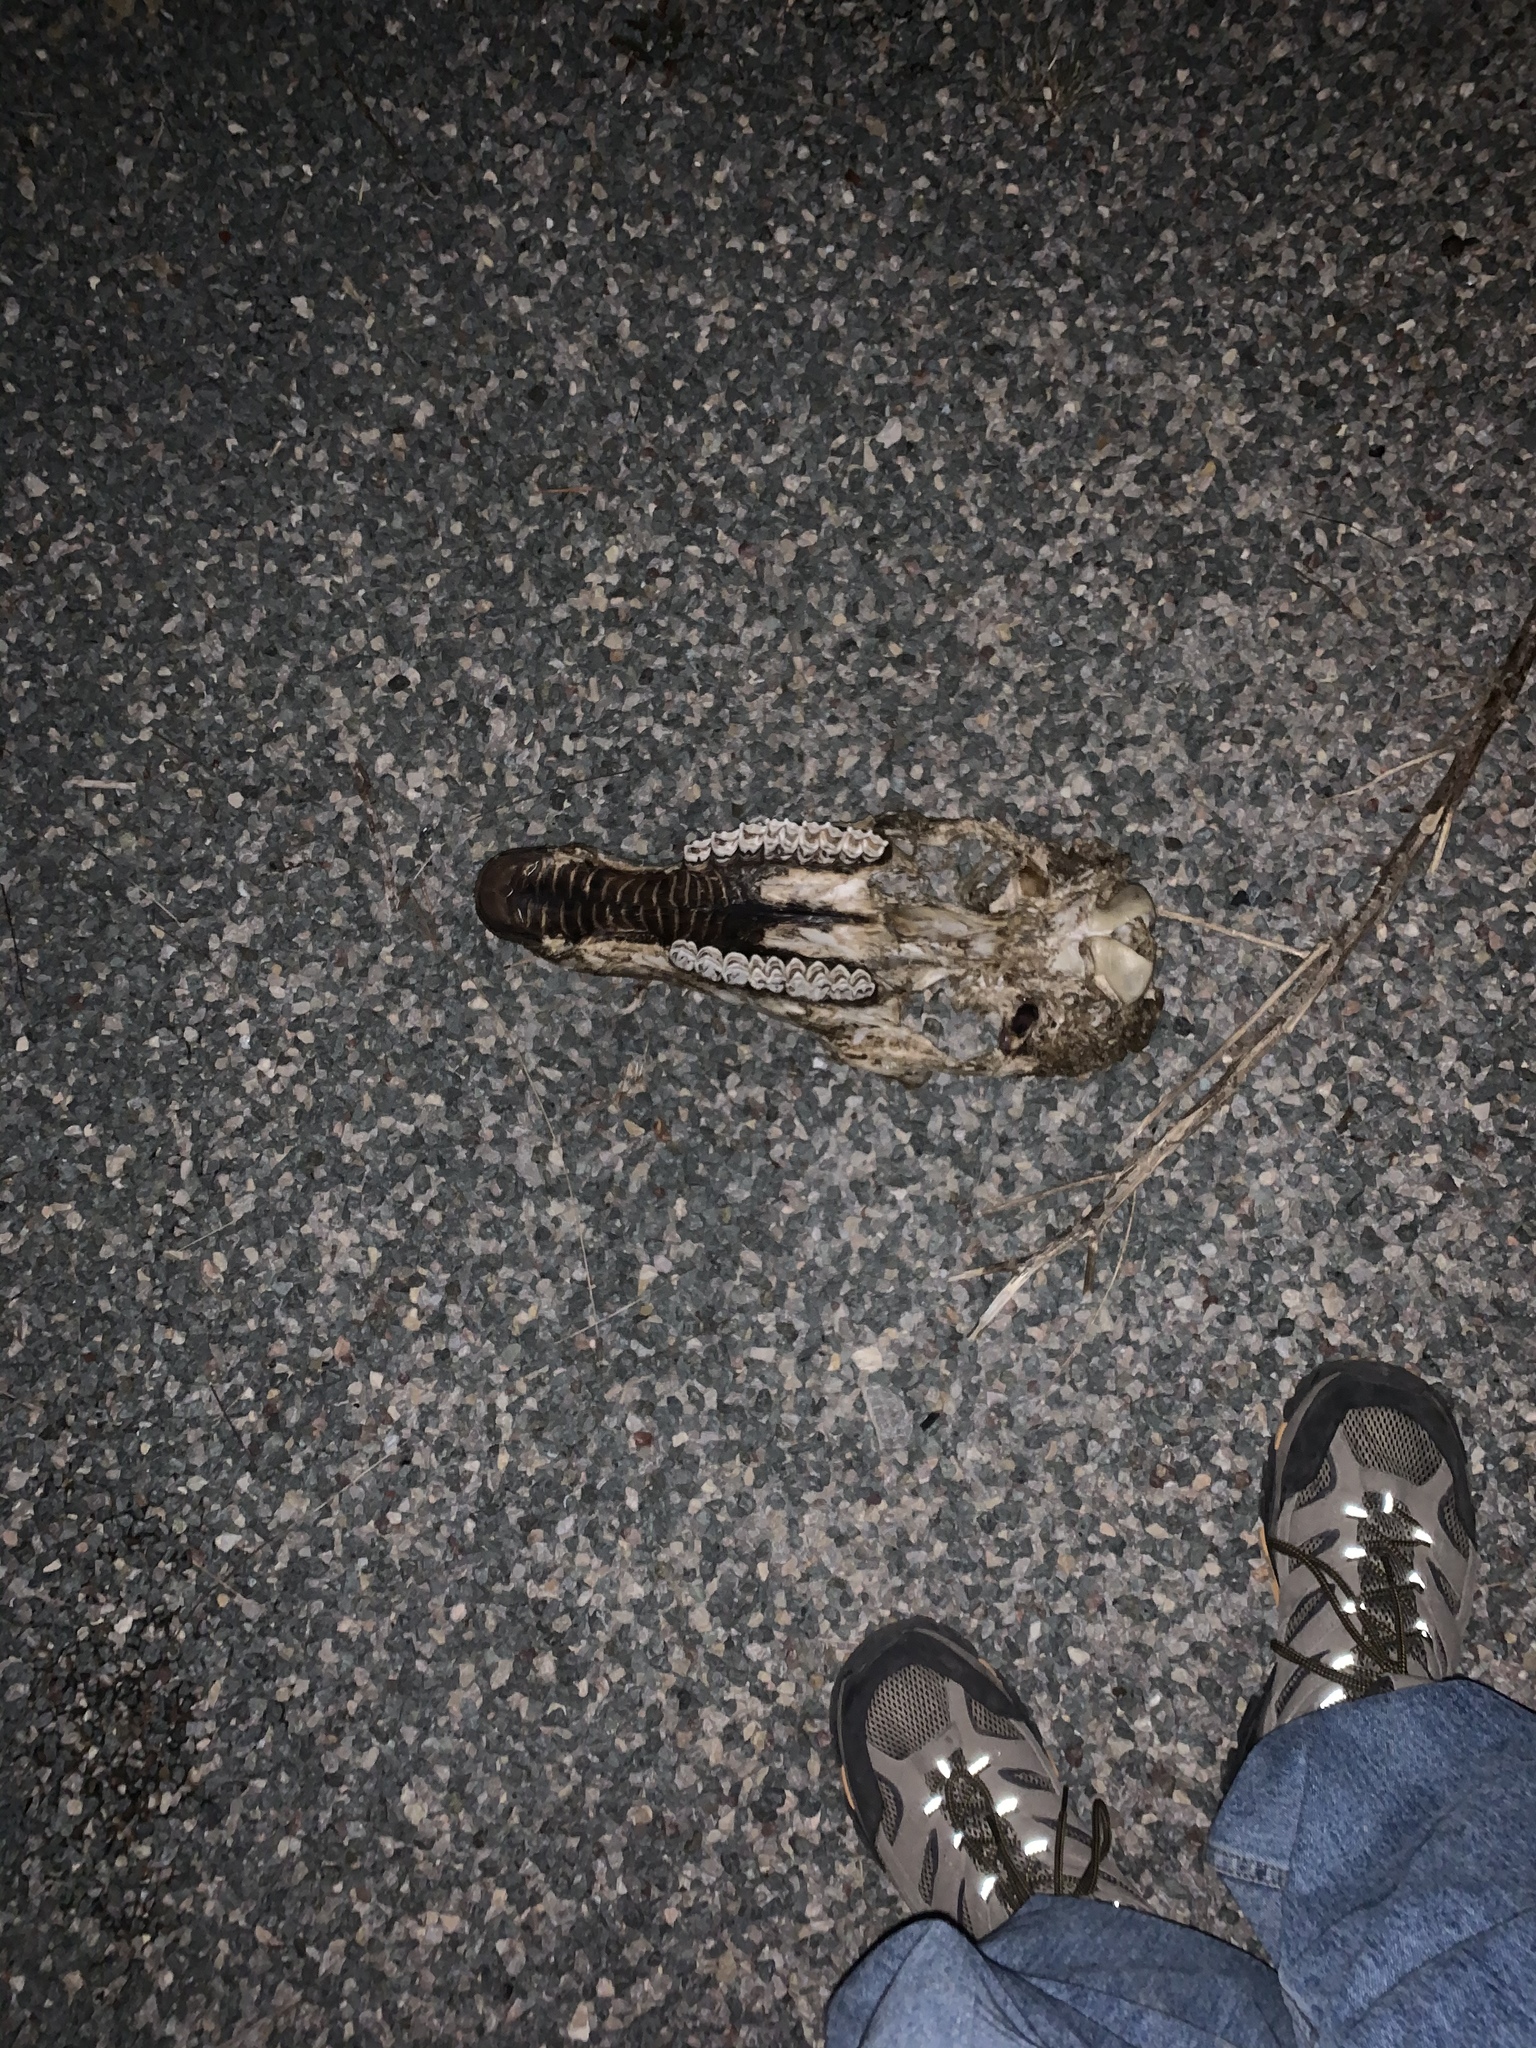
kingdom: Animalia
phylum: Chordata
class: Mammalia
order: Artiodactyla
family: Cervidae
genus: Cervus
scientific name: Cervus elaphus
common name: Red deer
